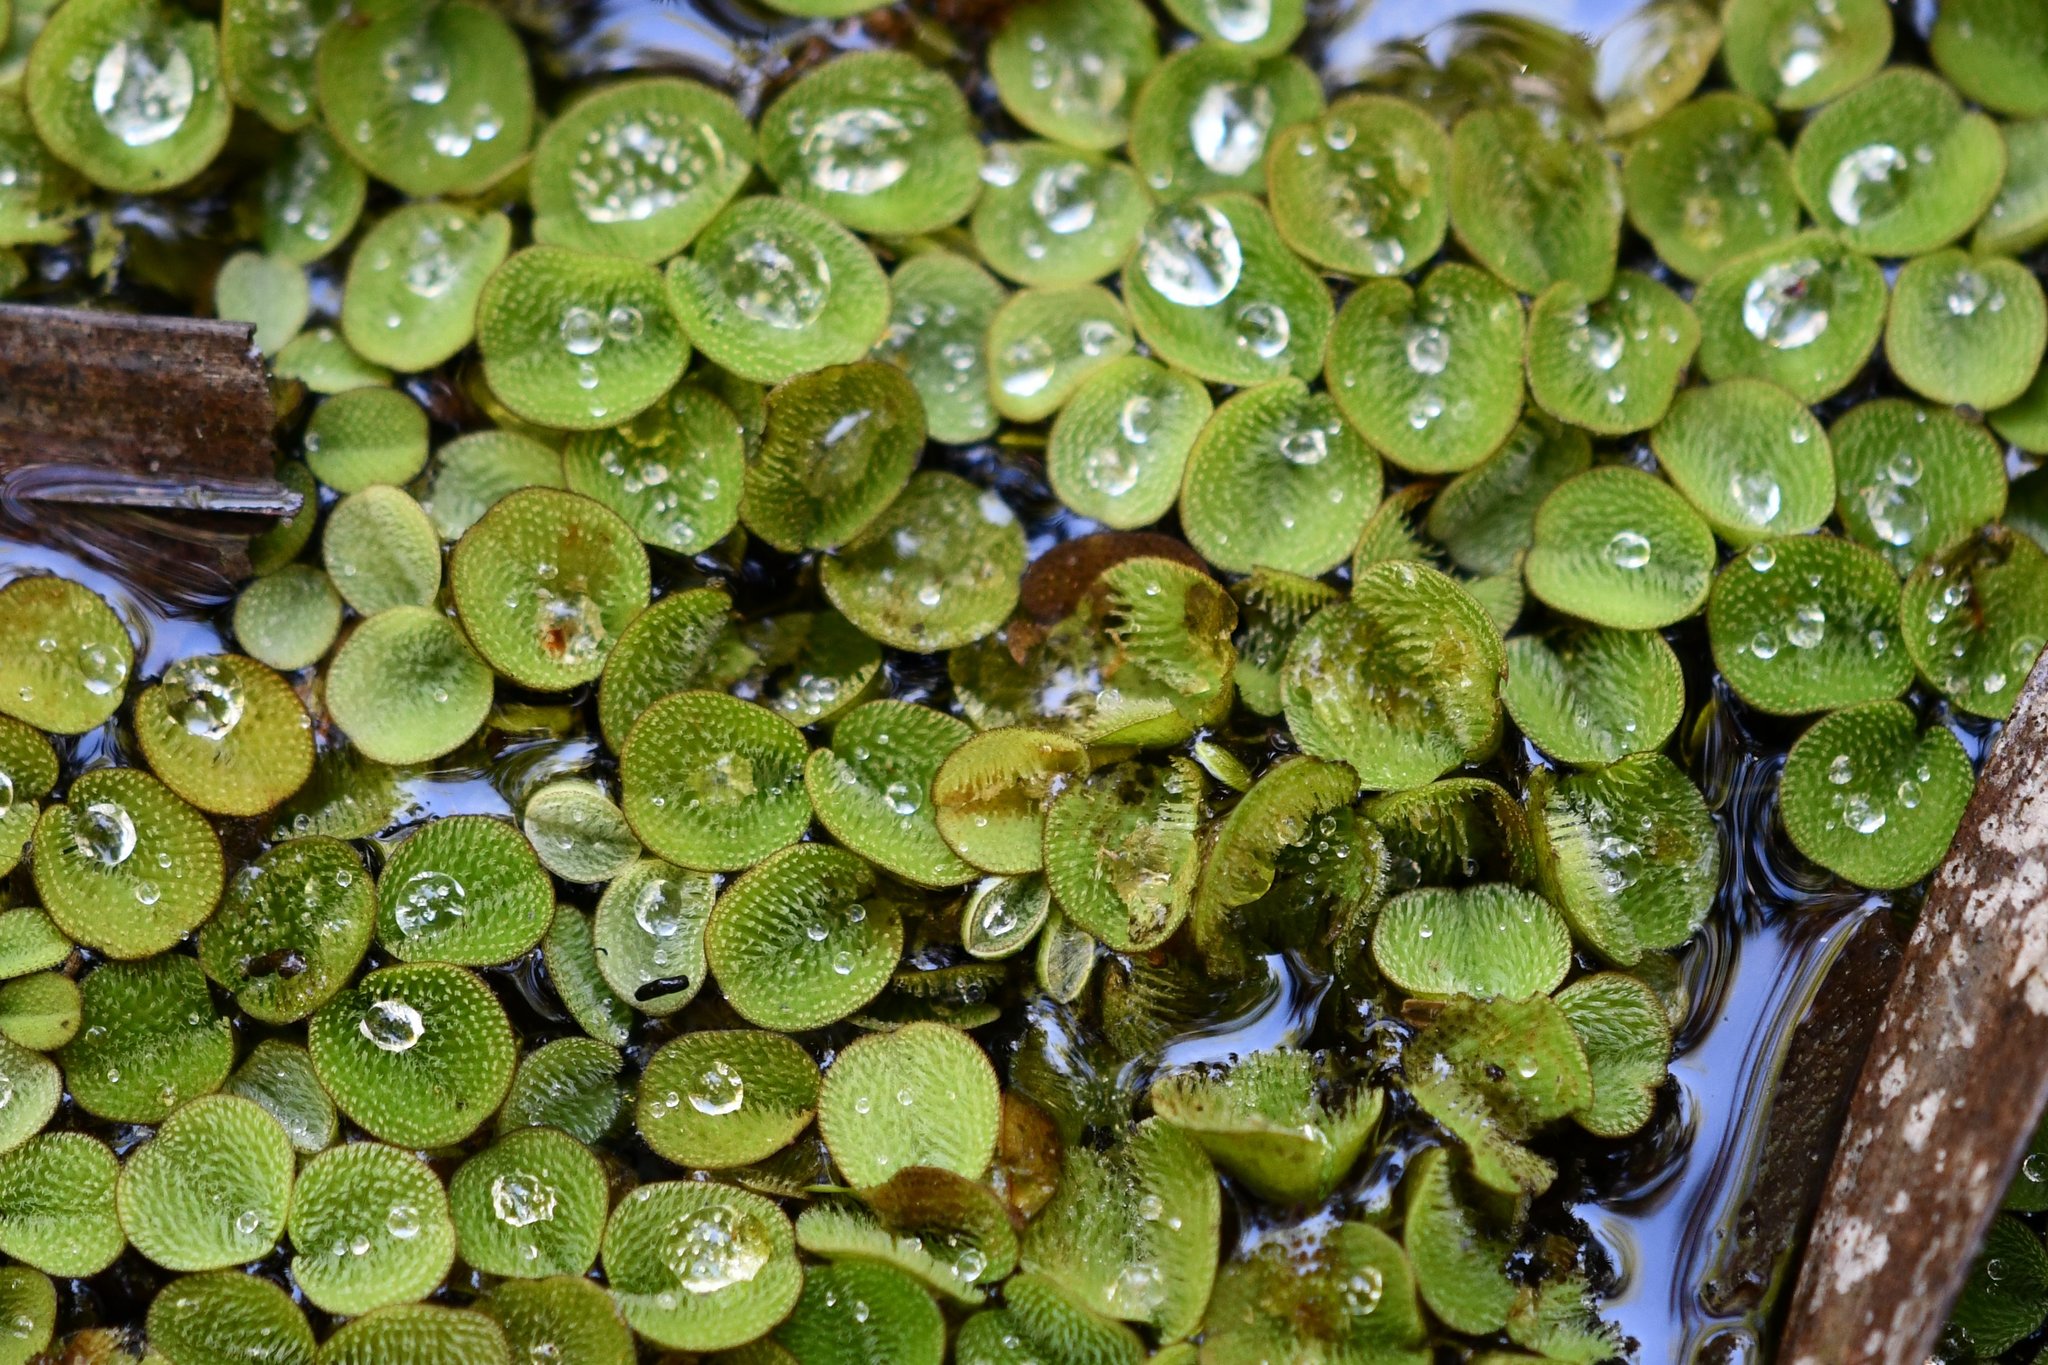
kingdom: Plantae
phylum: Tracheophyta
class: Polypodiopsida
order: Salviniales
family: Salviniaceae
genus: Salvinia
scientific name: Salvinia minima
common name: Water spangles
